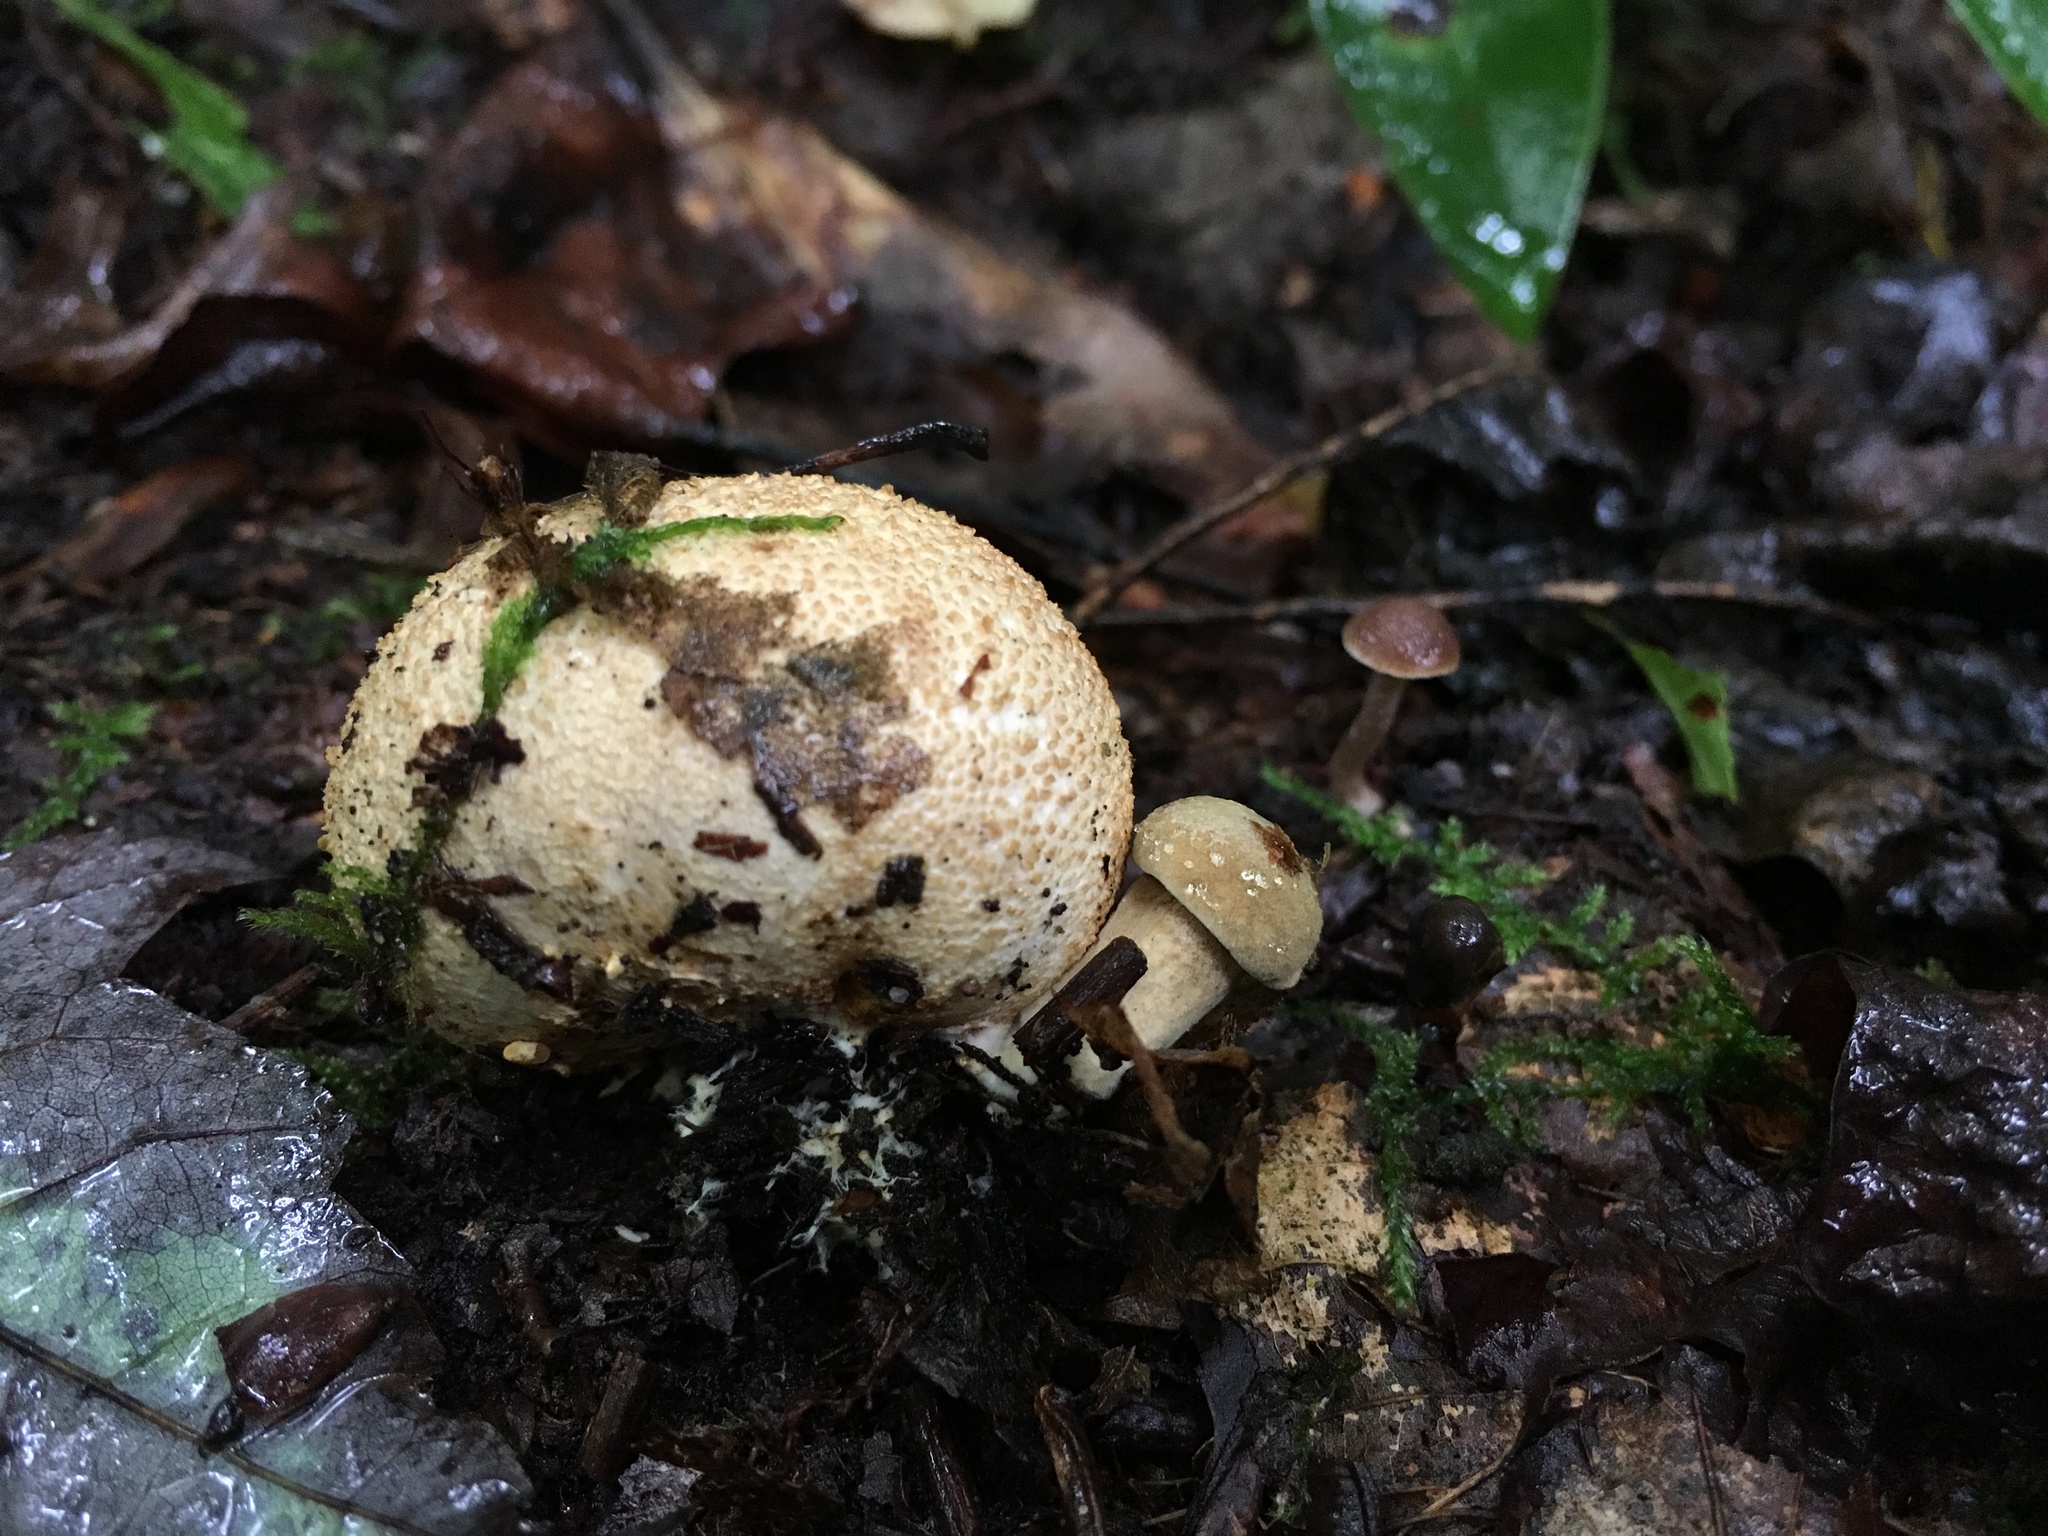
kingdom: Fungi
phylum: Basidiomycota
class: Agaricomycetes
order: Boletales
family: Boletaceae
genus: Pseudoboletus
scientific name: Pseudoboletus parasiticus
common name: Parasitic bolete
